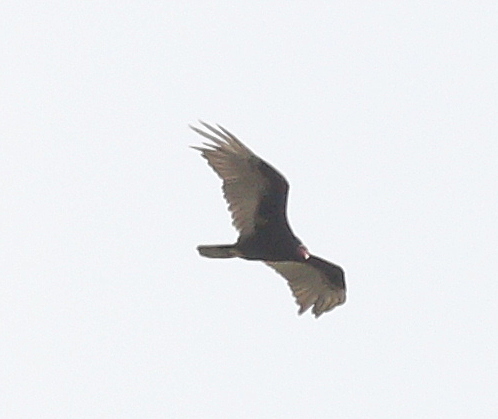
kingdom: Animalia
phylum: Chordata
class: Aves
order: Accipitriformes
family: Cathartidae
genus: Cathartes
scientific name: Cathartes aura
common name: Turkey vulture
